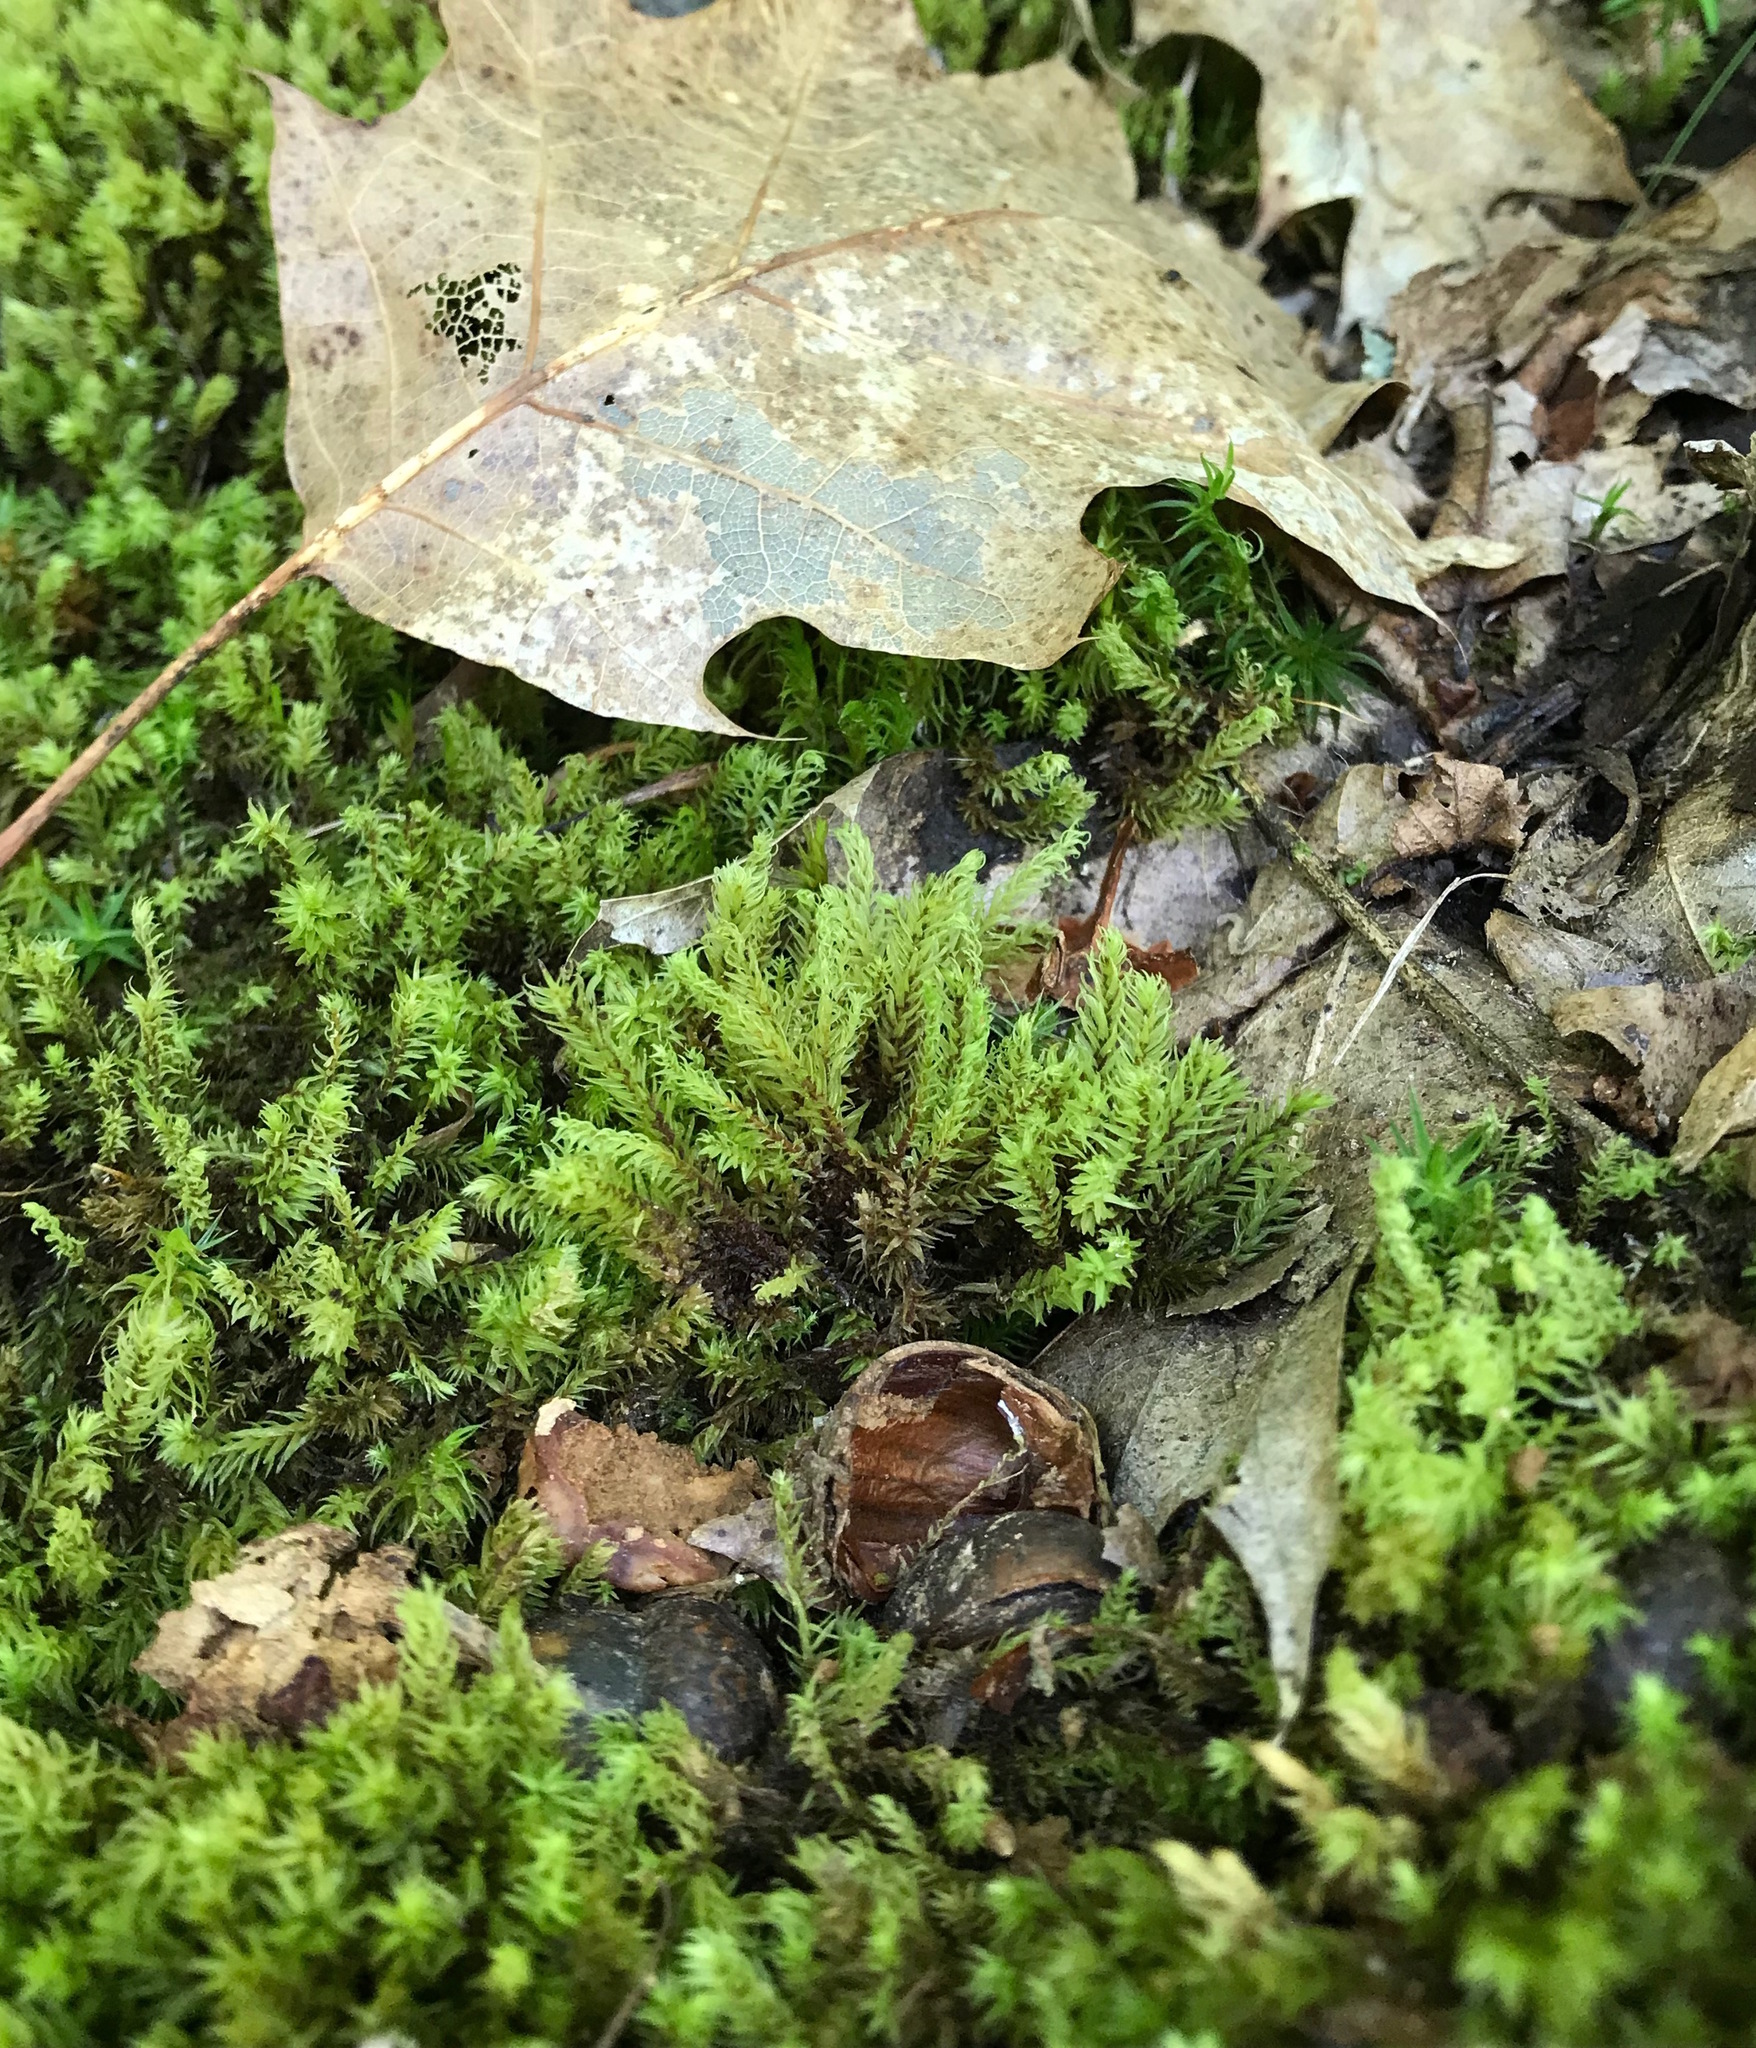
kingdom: Plantae
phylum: Bryophyta
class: Bryopsida
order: Aulacomniales
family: Aulacomniaceae
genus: Aulacomnium
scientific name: Aulacomnium palustre
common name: Bog groove-moss
